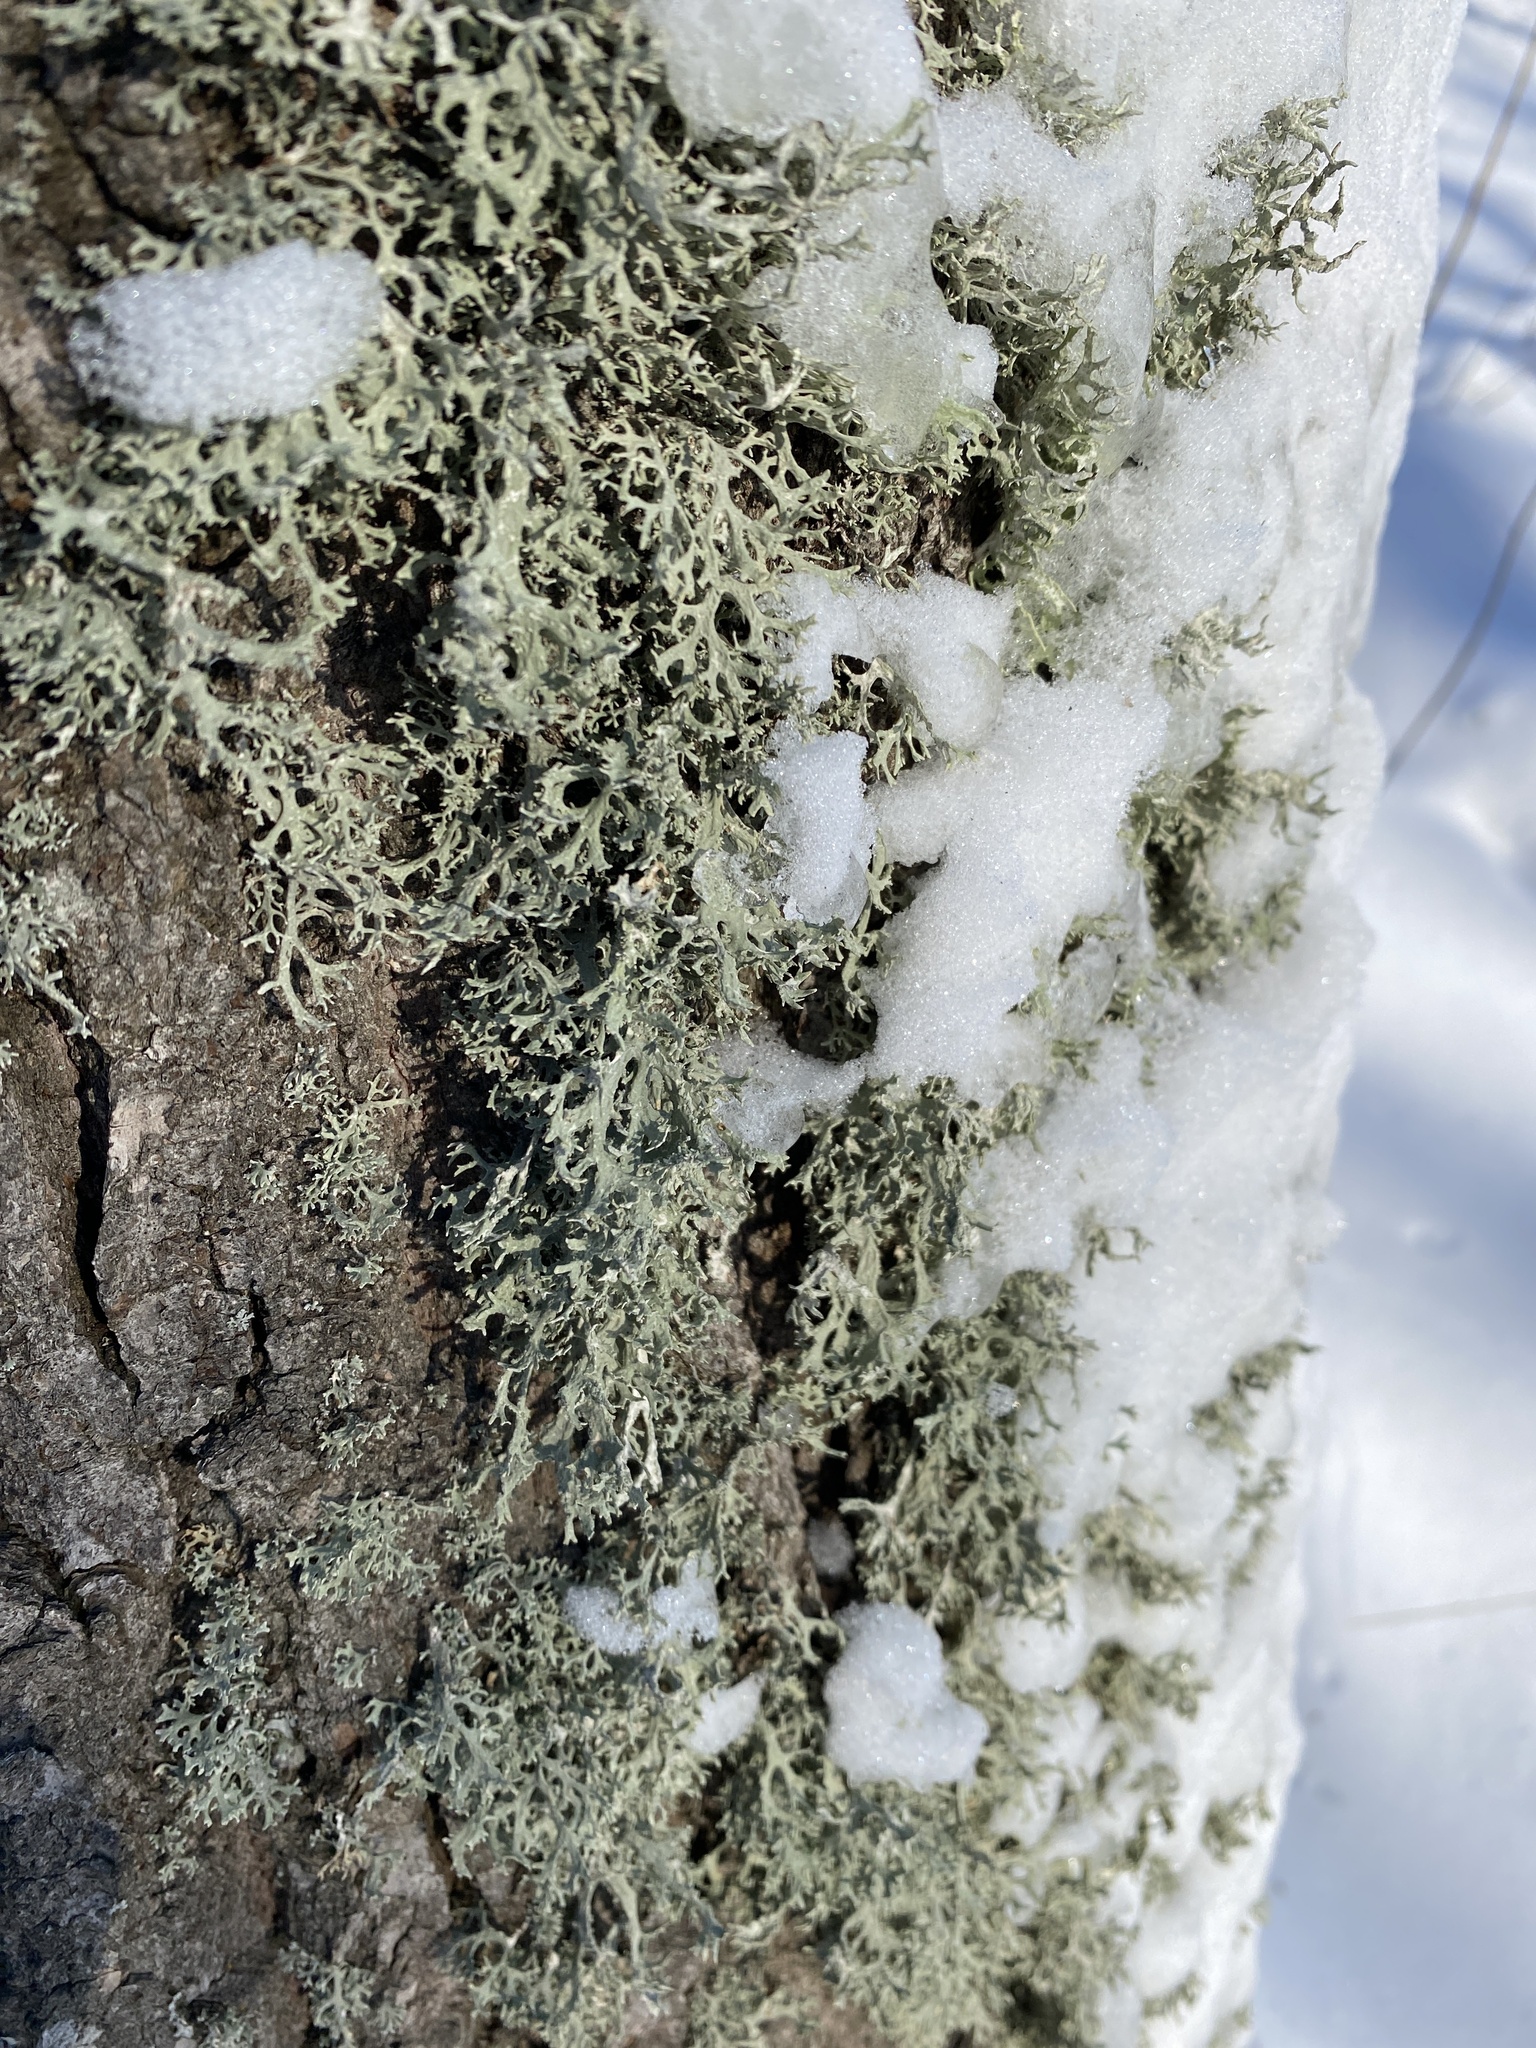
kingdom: Fungi
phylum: Ascomycota
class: Lecanoromycetes
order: Lecanorales
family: Parmeliaceae
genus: Evernia
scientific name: Evernia prunastri
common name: Oak moss
